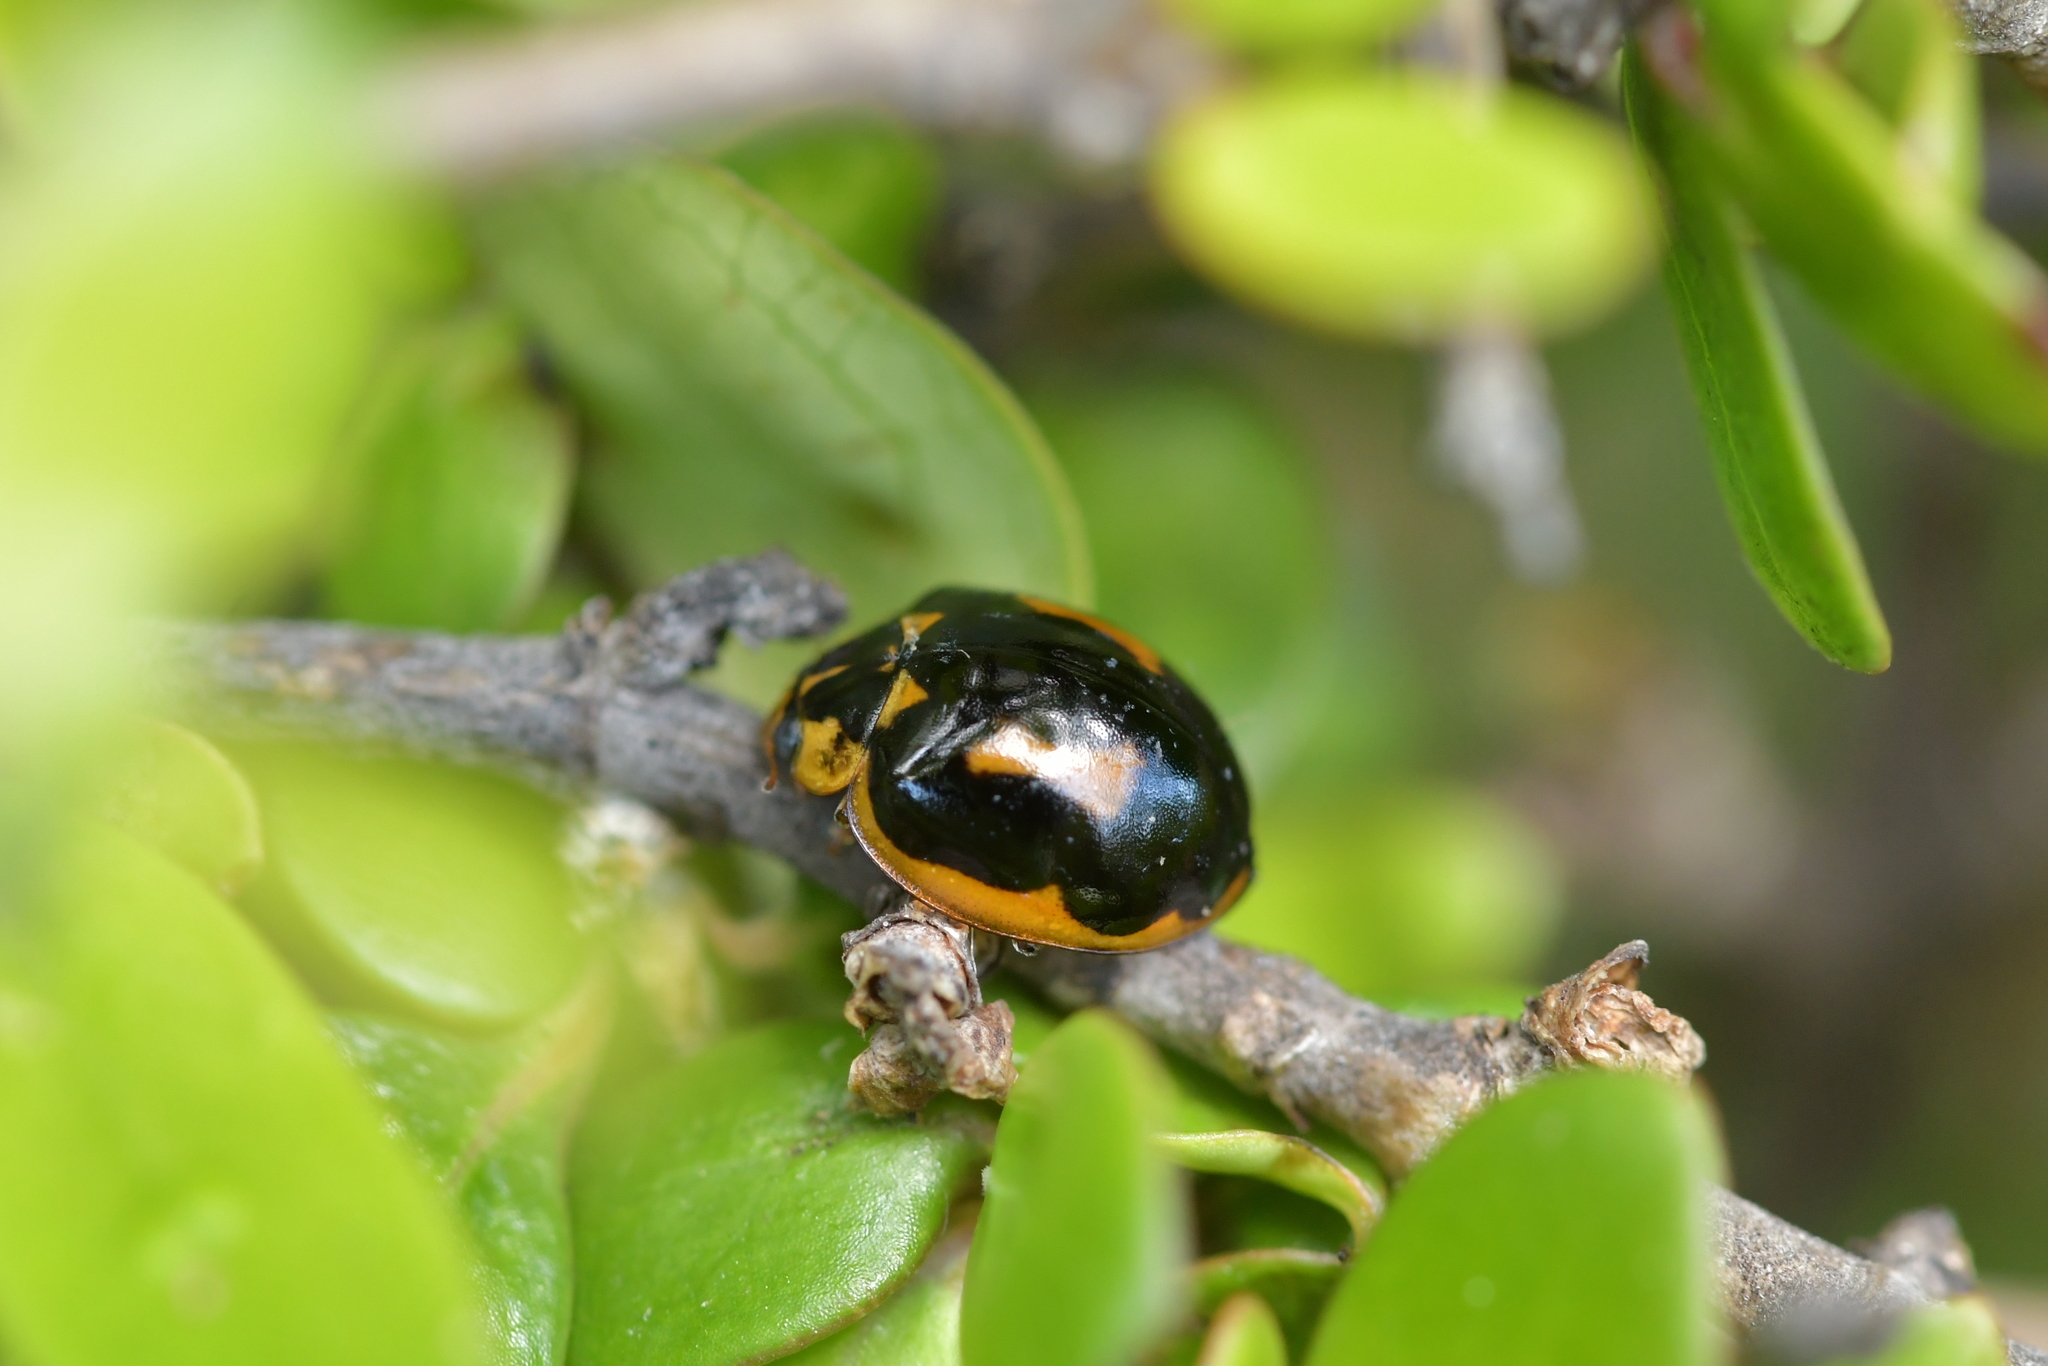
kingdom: Animalia
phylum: Arthropoda
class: Insecta
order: Coleoptera
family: Coccinellidae
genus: Harmonia
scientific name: Harmonia
